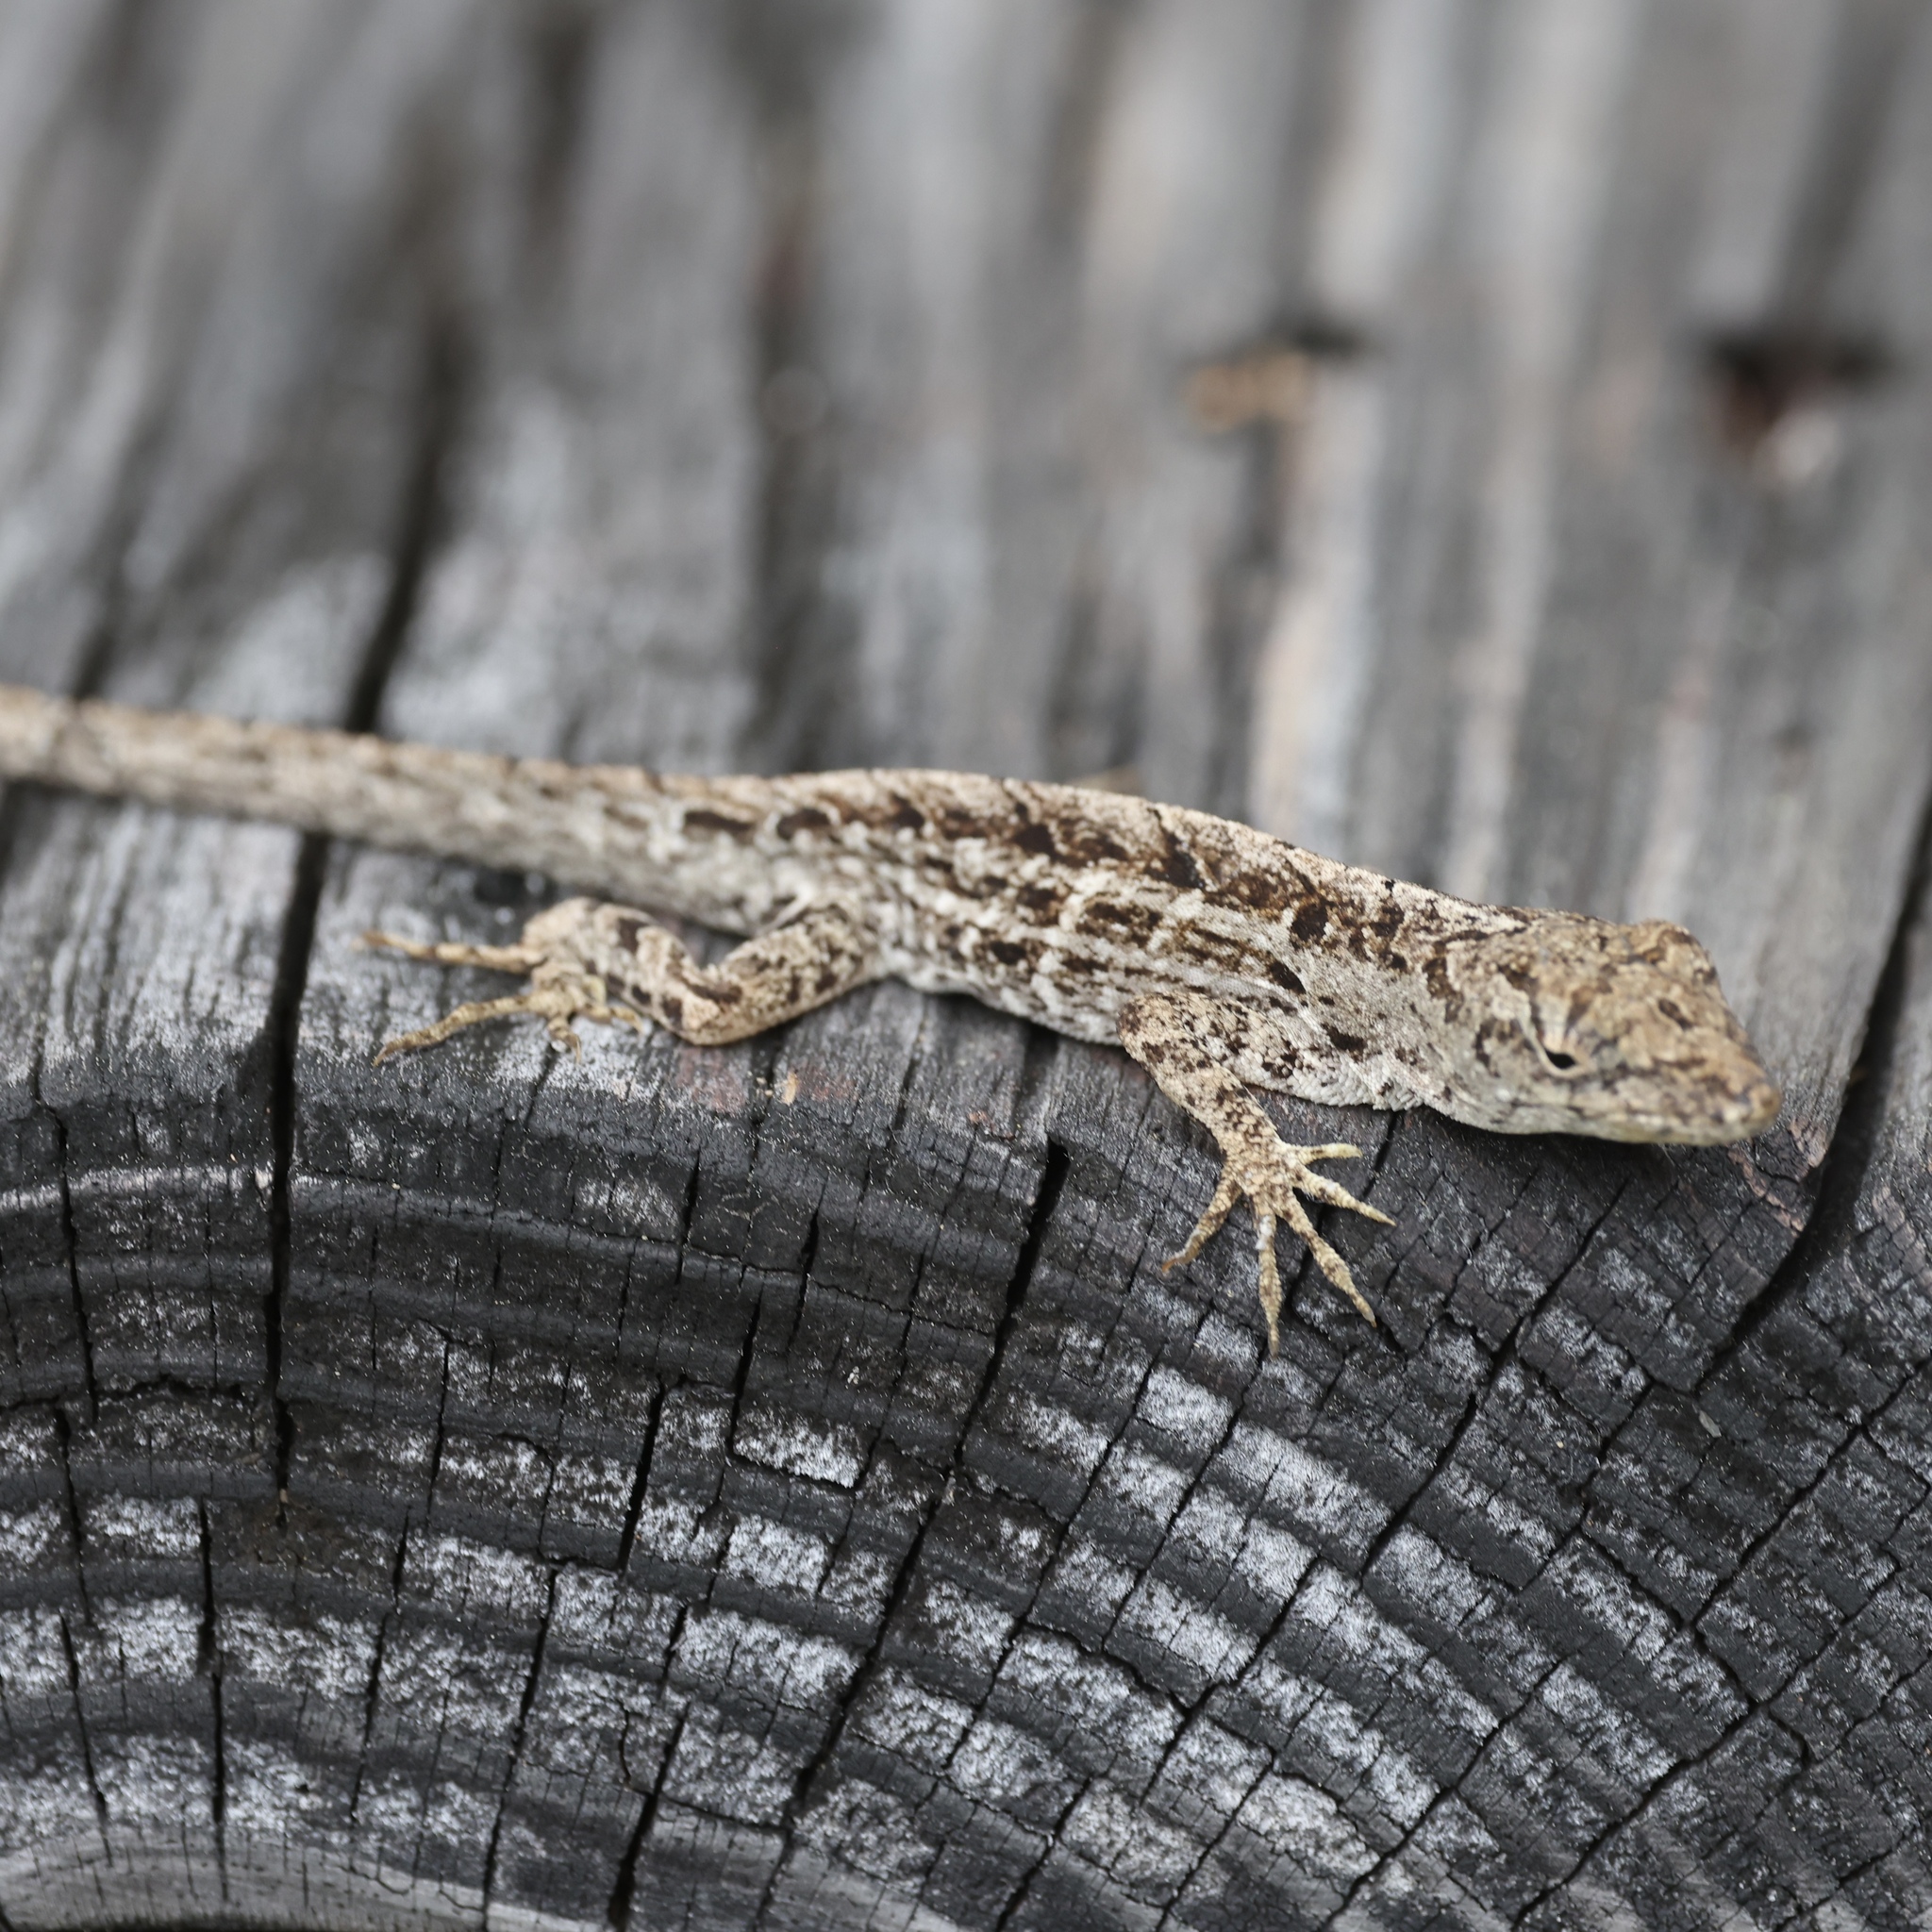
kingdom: Animalia
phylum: Chordata
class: Squamata
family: Dactyloidae
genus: Anolis
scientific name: Anolis sagrei
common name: Brown anole
